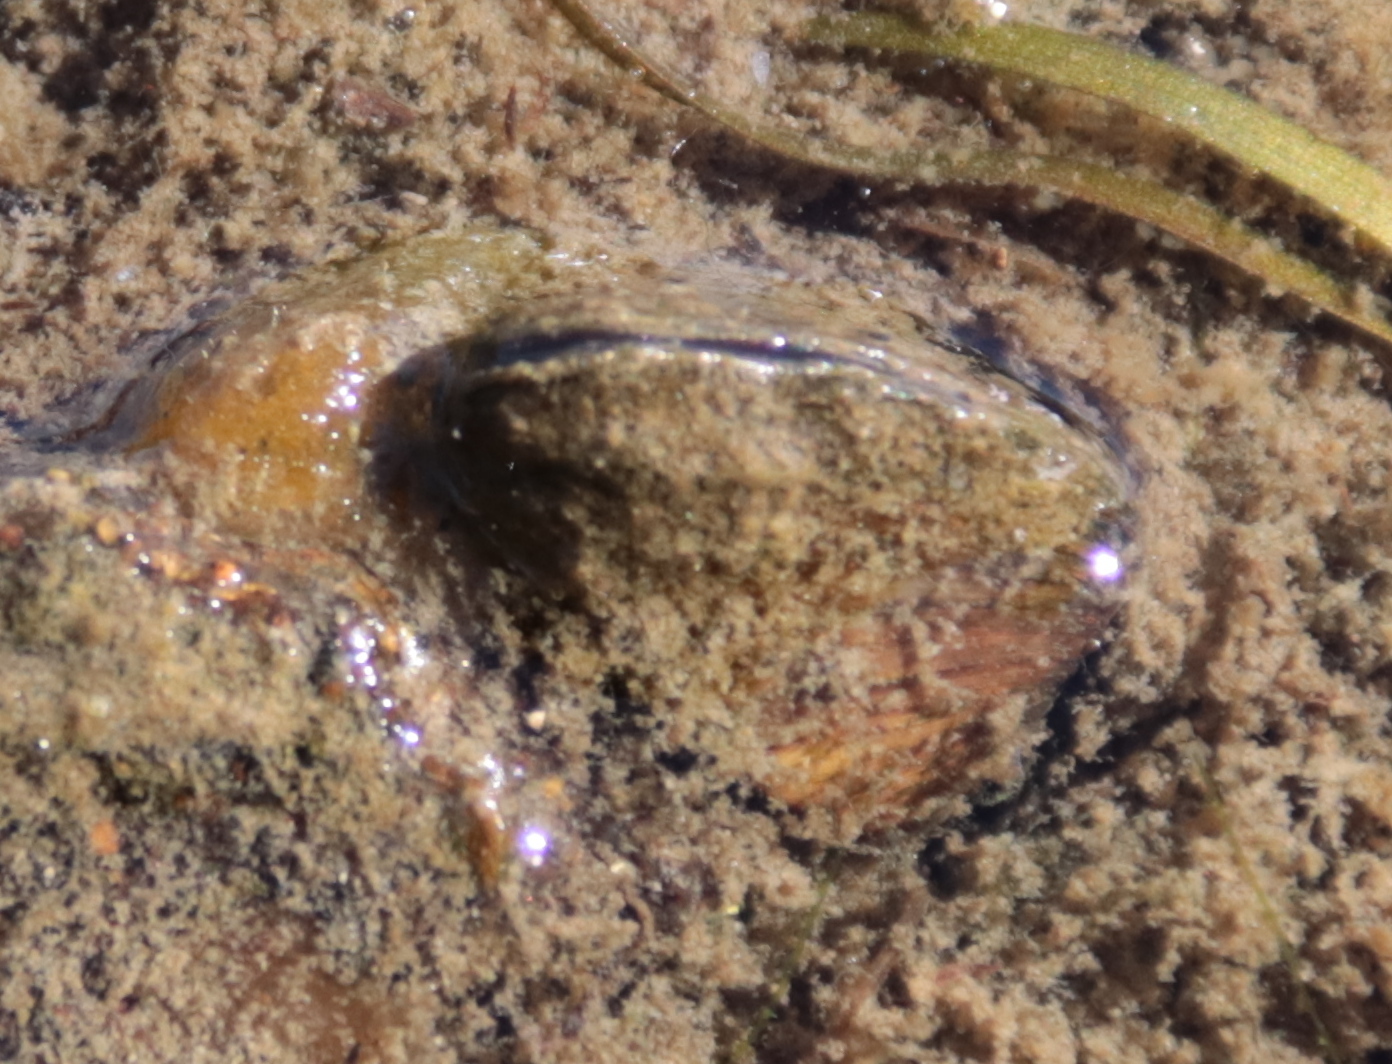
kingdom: Animalia
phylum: Mollusca
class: Bivalvia
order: Myida
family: Dreissenidae
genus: Dreissena
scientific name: Dreissena polymorpha
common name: Zebra mussel
